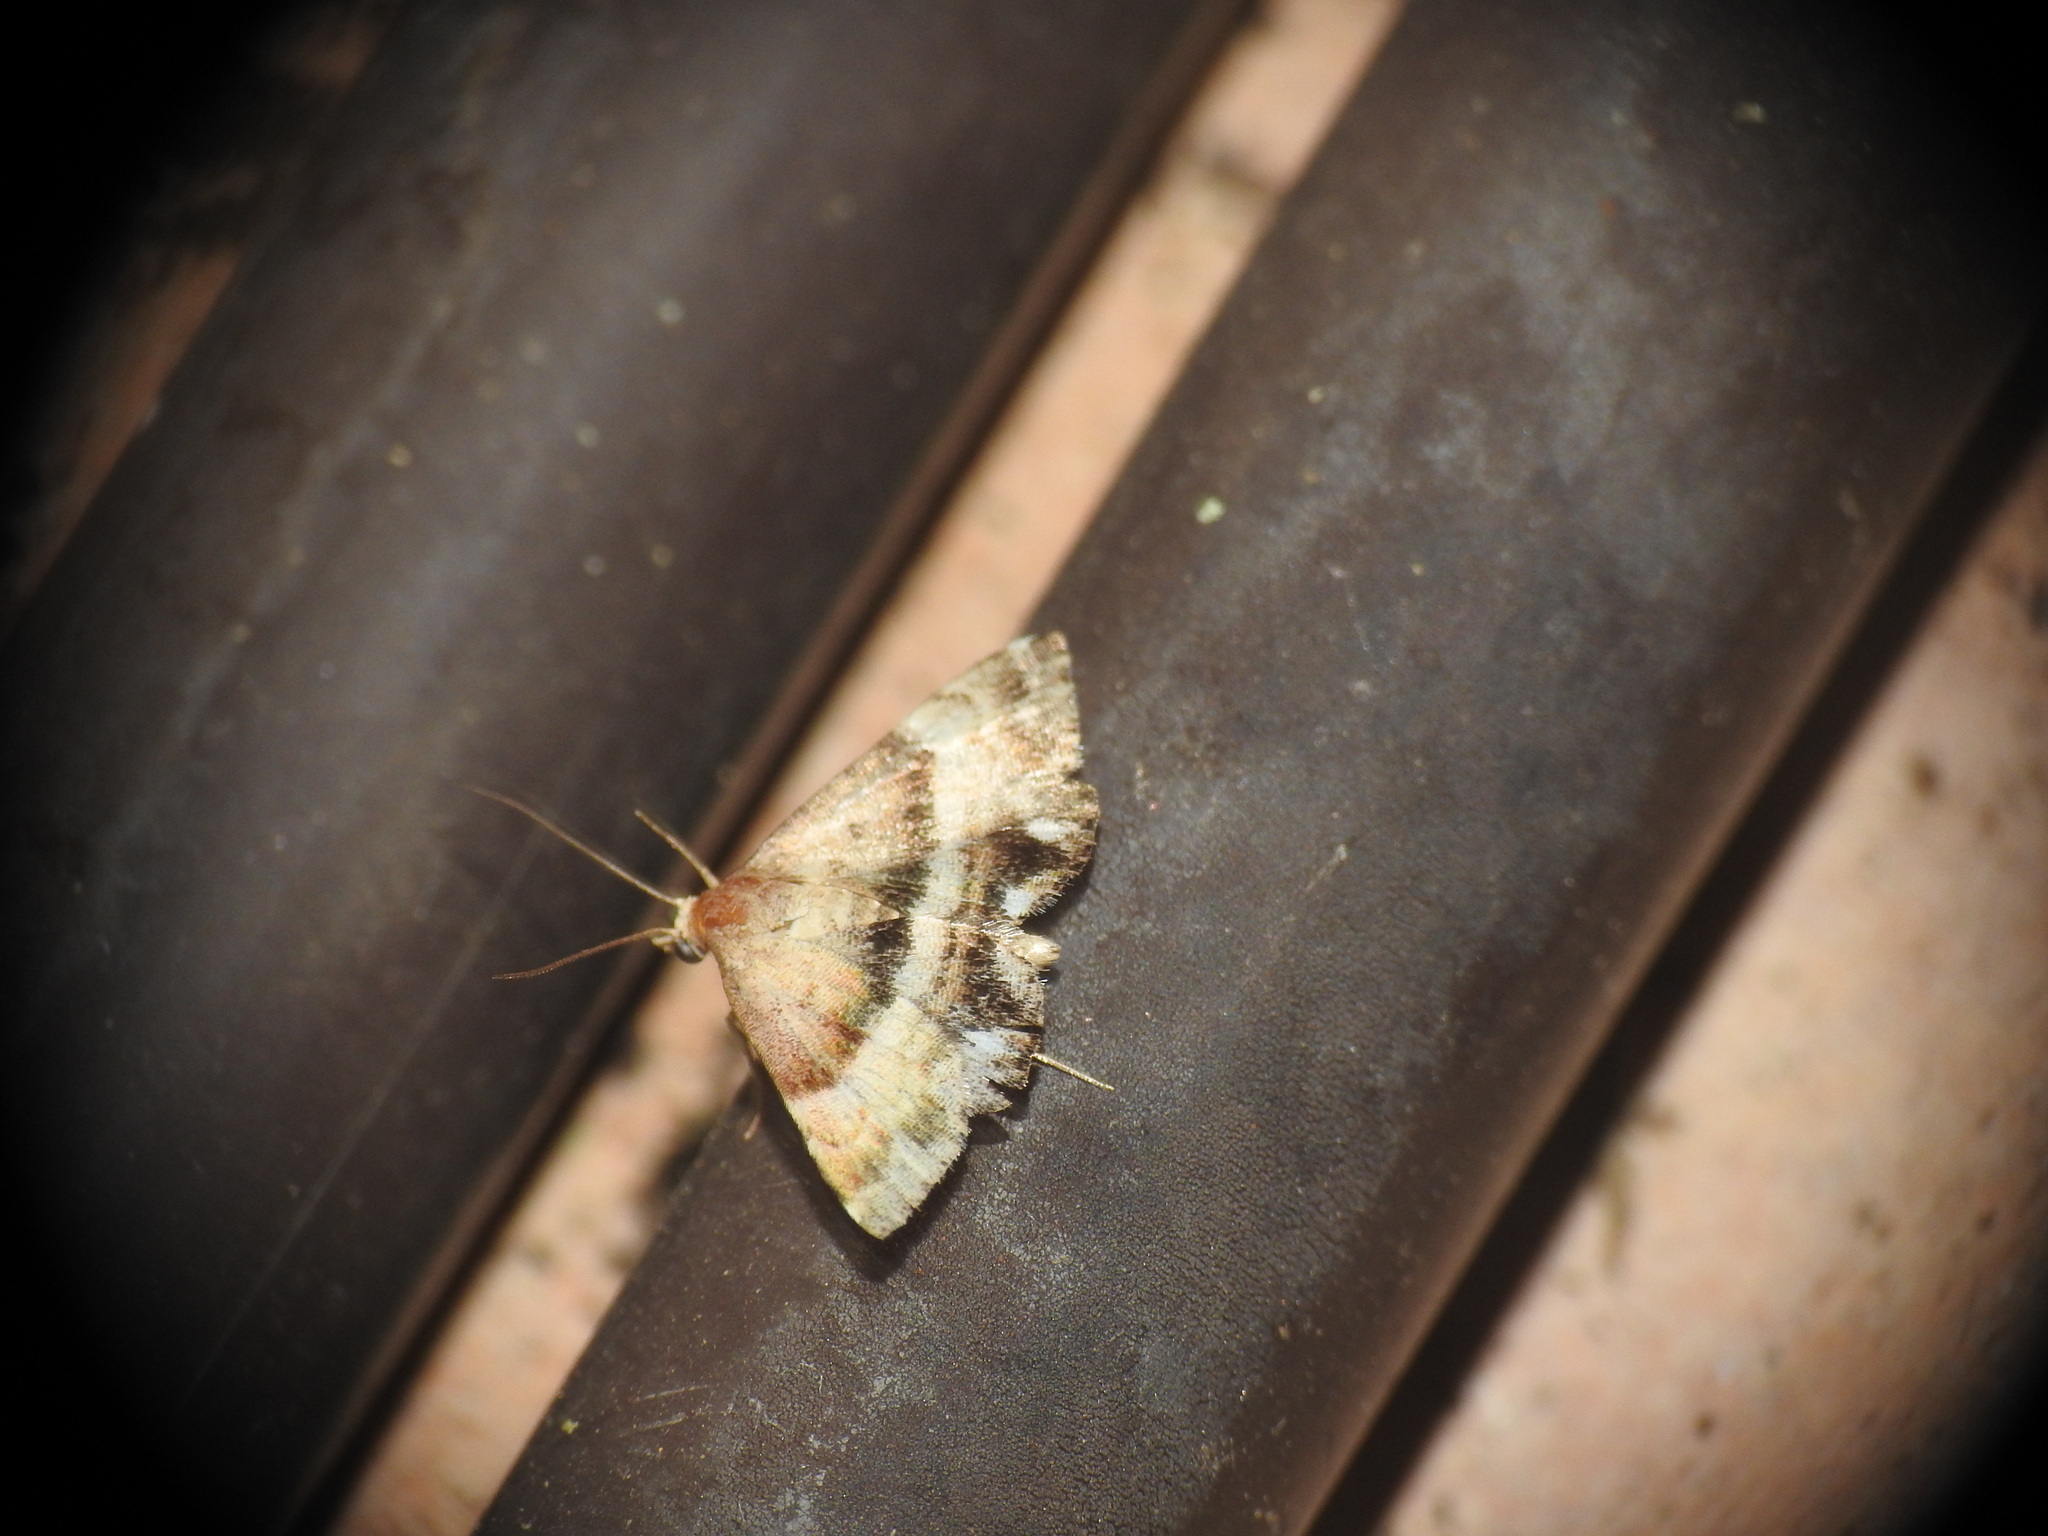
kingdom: Animalia
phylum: Arthropoda
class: Insecta
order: Lepidoptera
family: Noctuidae
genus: Odice
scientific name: Odice jucunda
